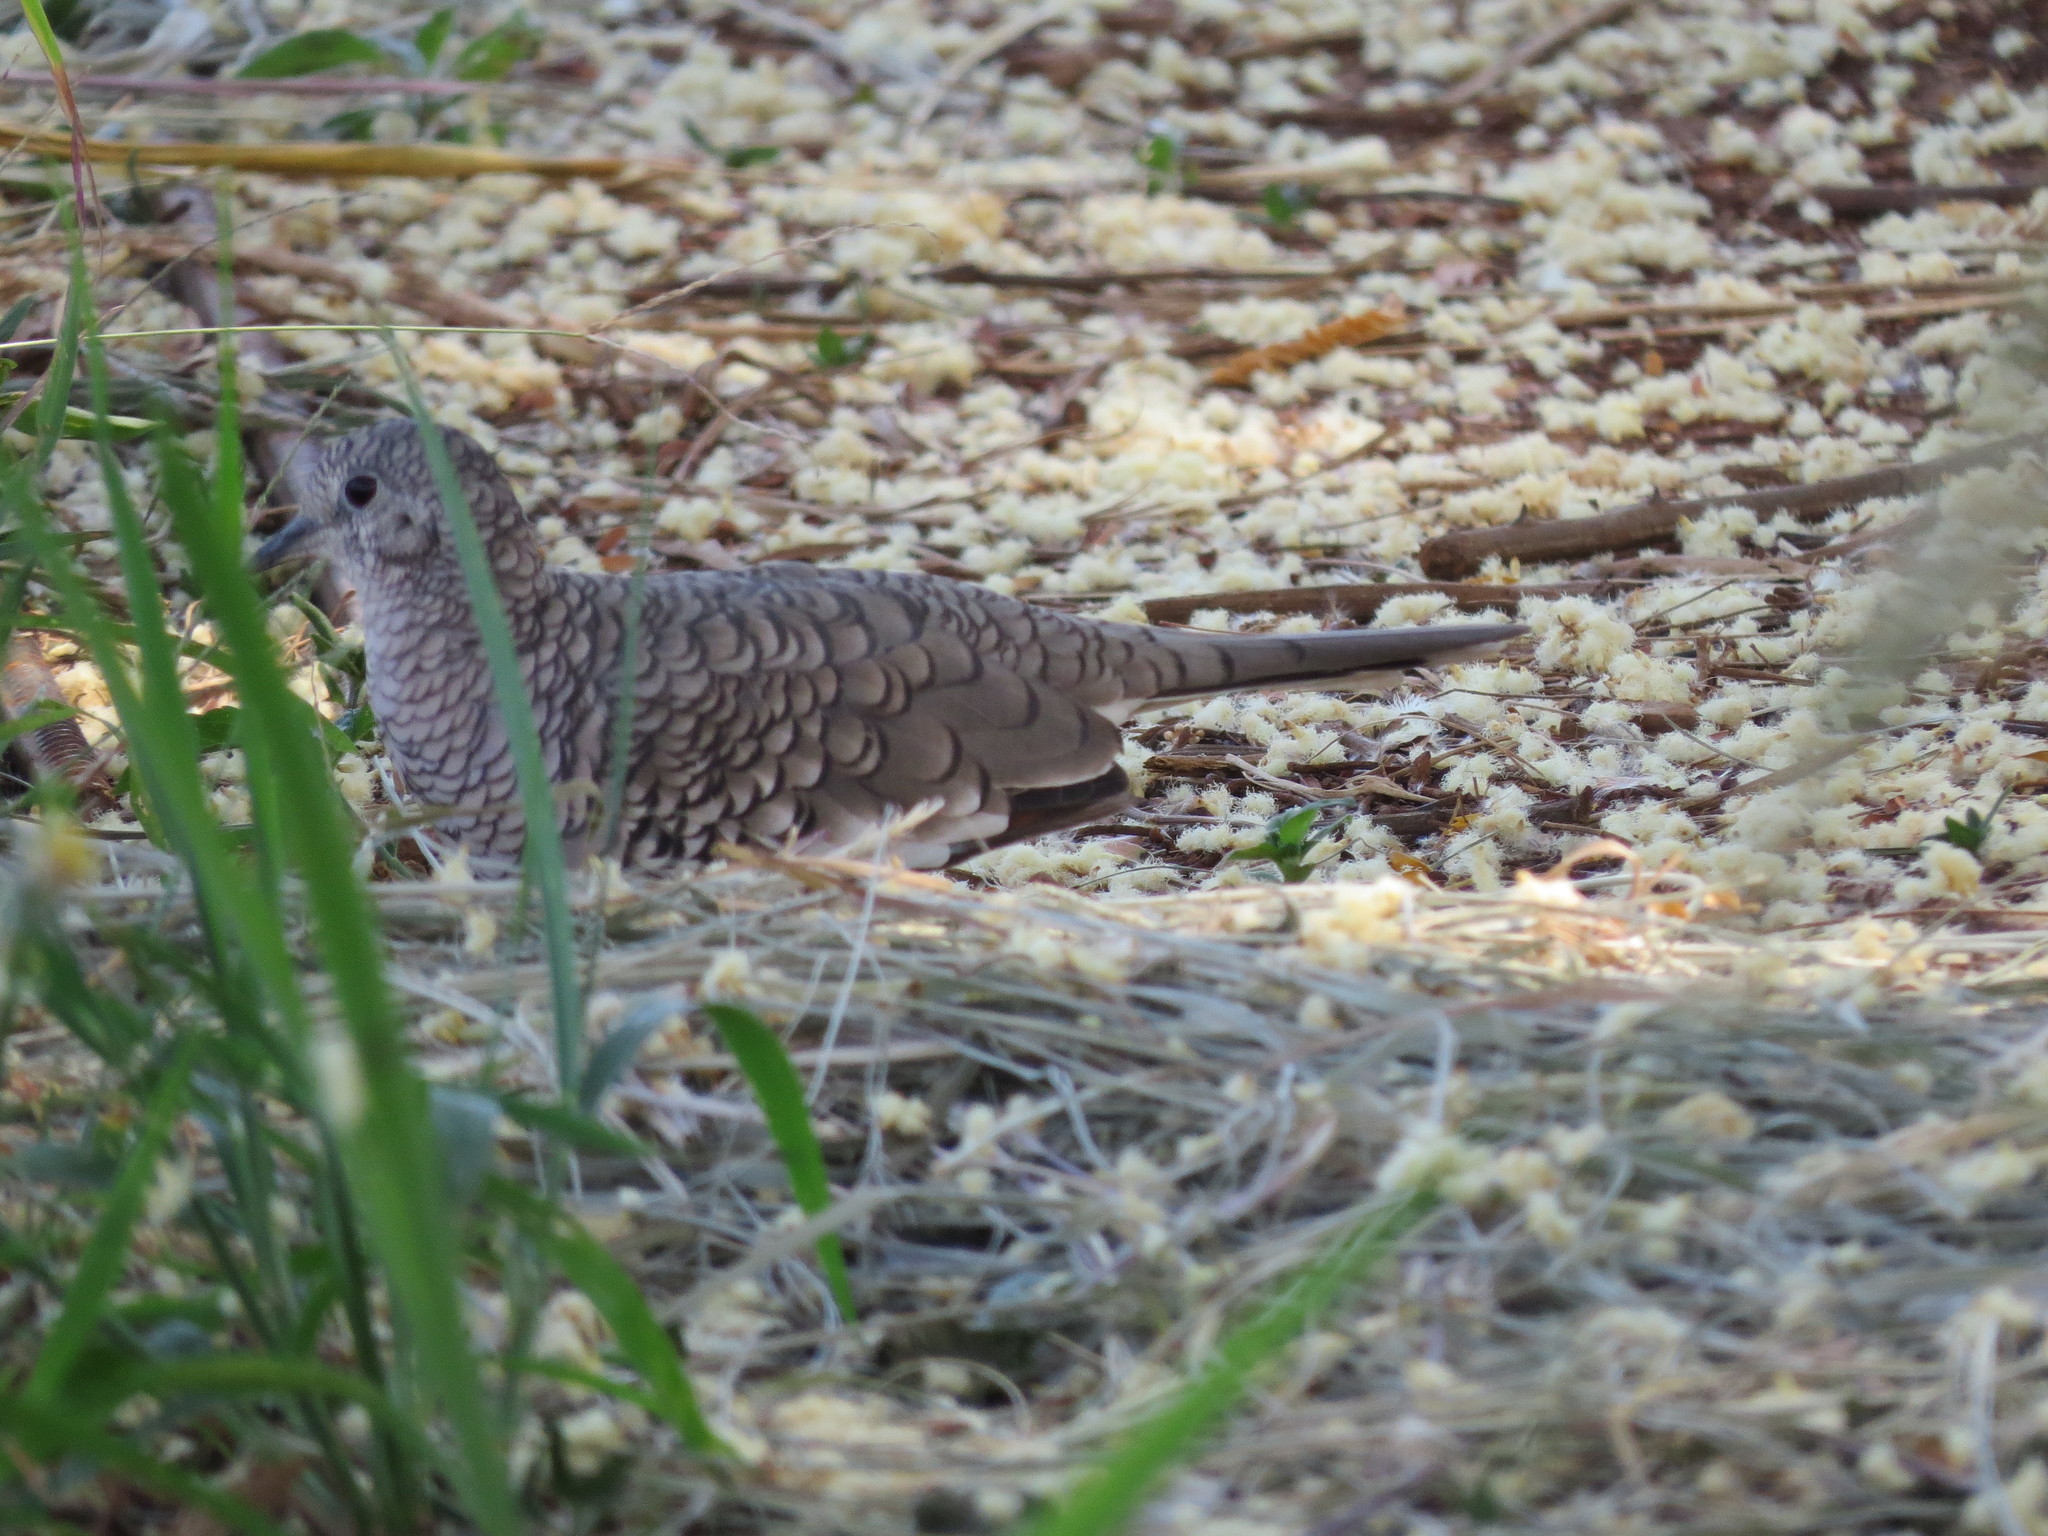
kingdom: Animalia
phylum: Chordata
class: Aves
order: Columbiformes
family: Columbidae
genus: Columbina
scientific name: Columbina squammata
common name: Scaled dove
